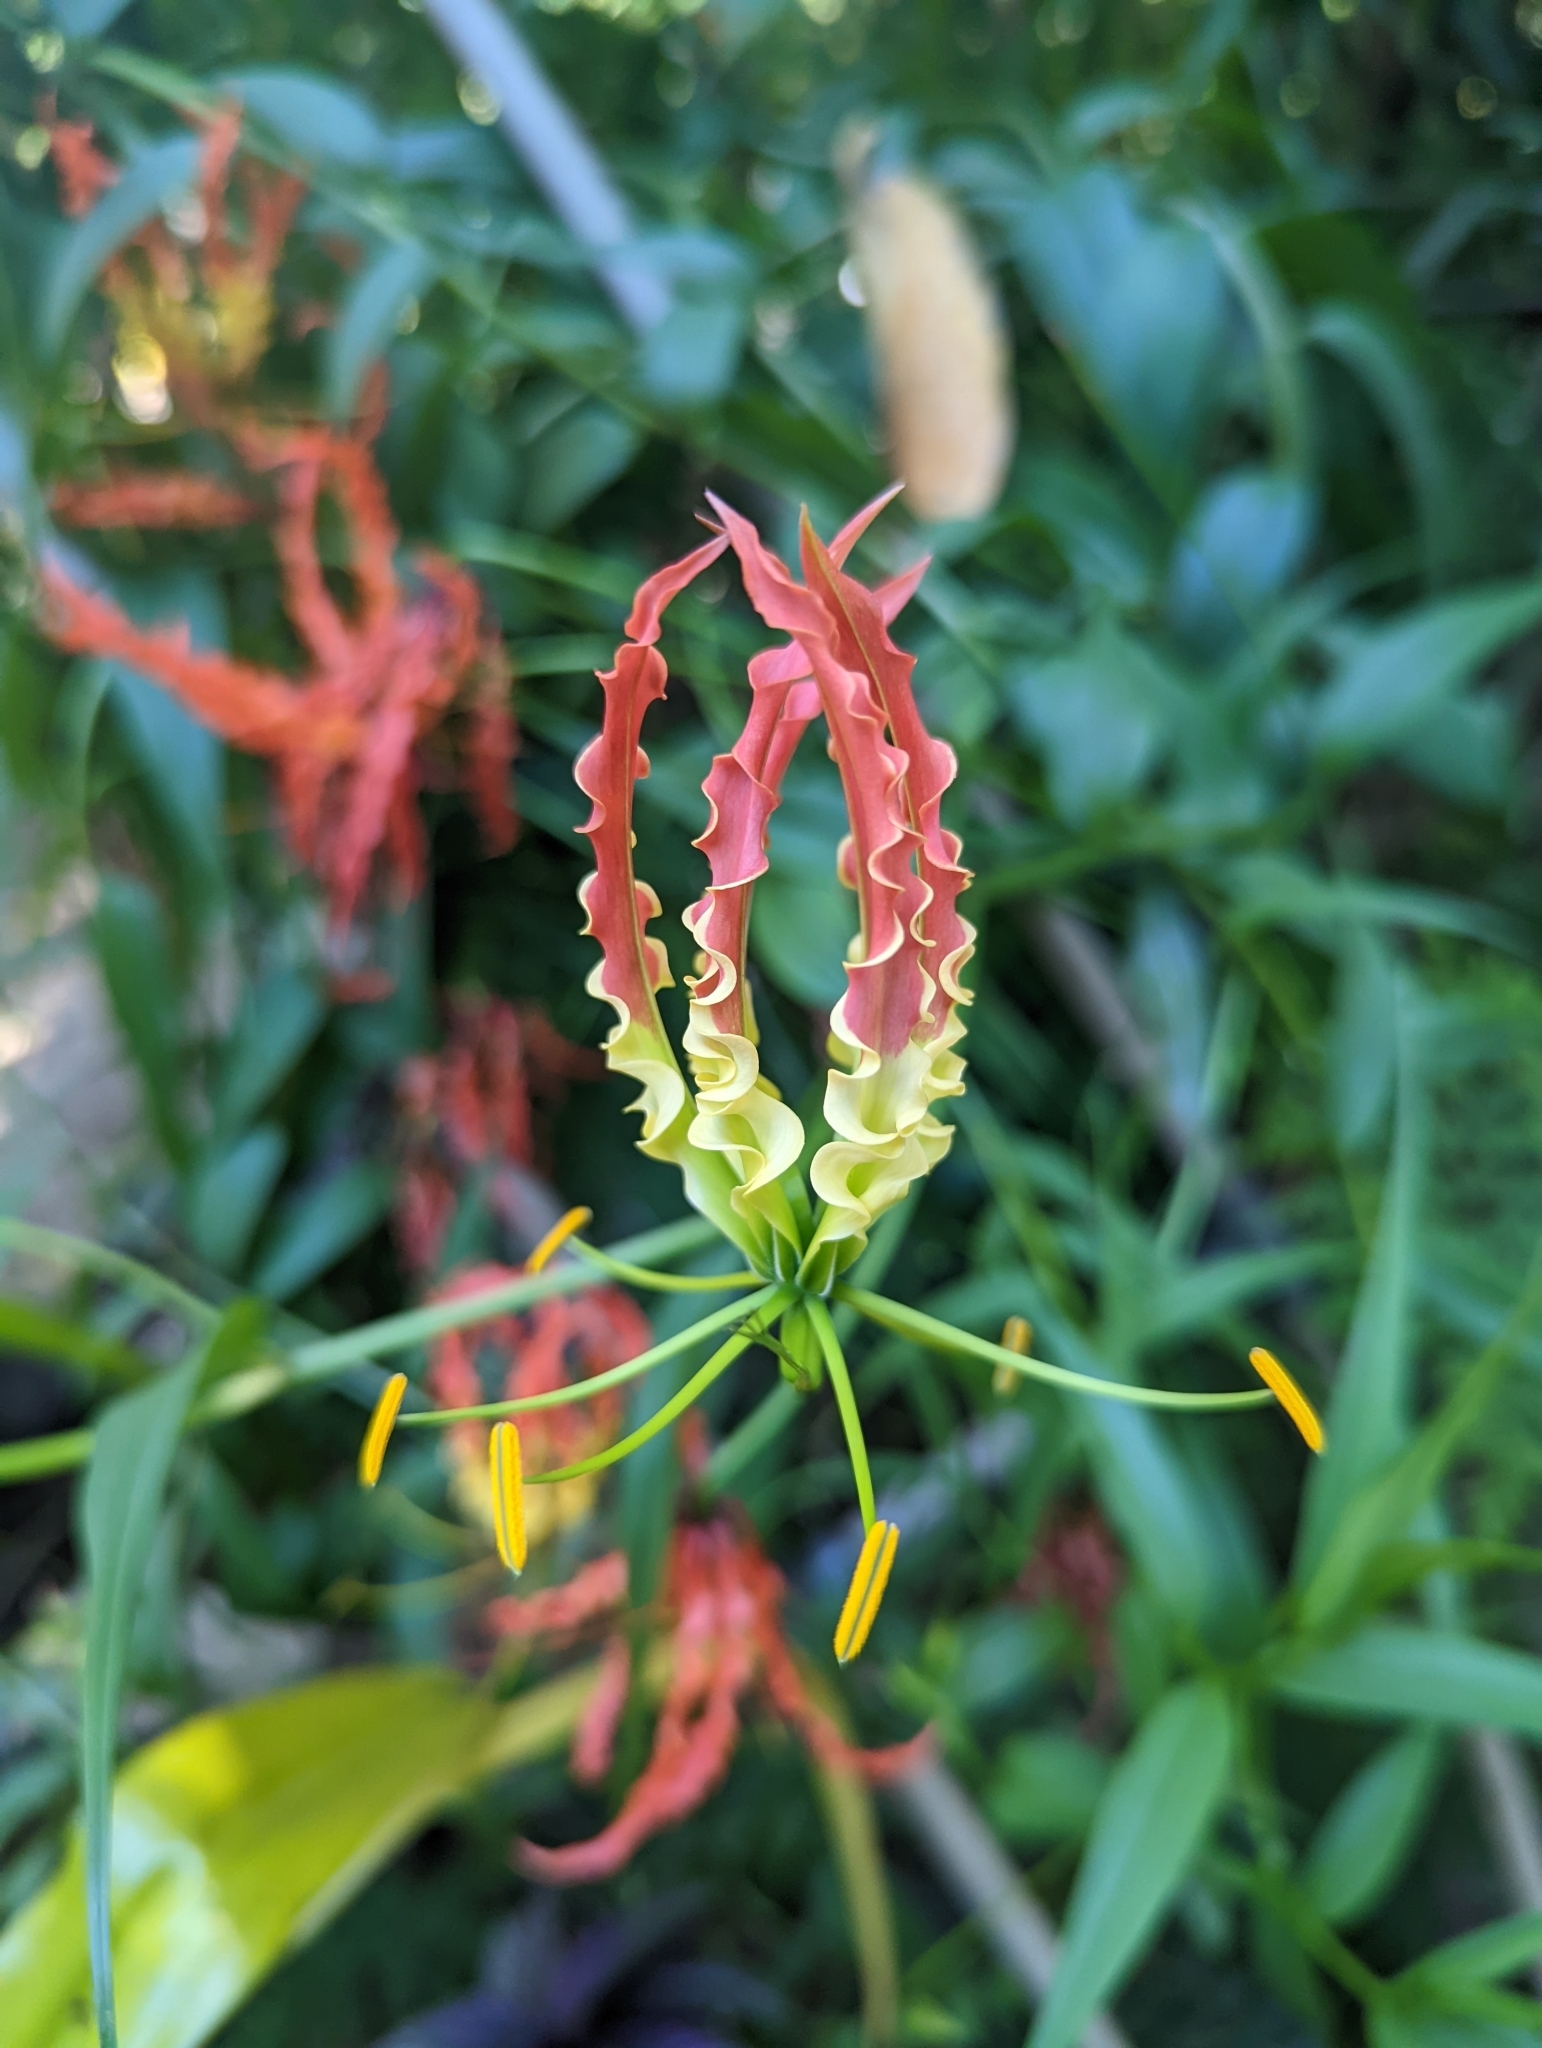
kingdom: Plantae
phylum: Tracheophyta
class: Liliopsida
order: Liliales
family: Colchicaceae
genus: Gloriosa
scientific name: Gloriosa superba
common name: Flame lily
